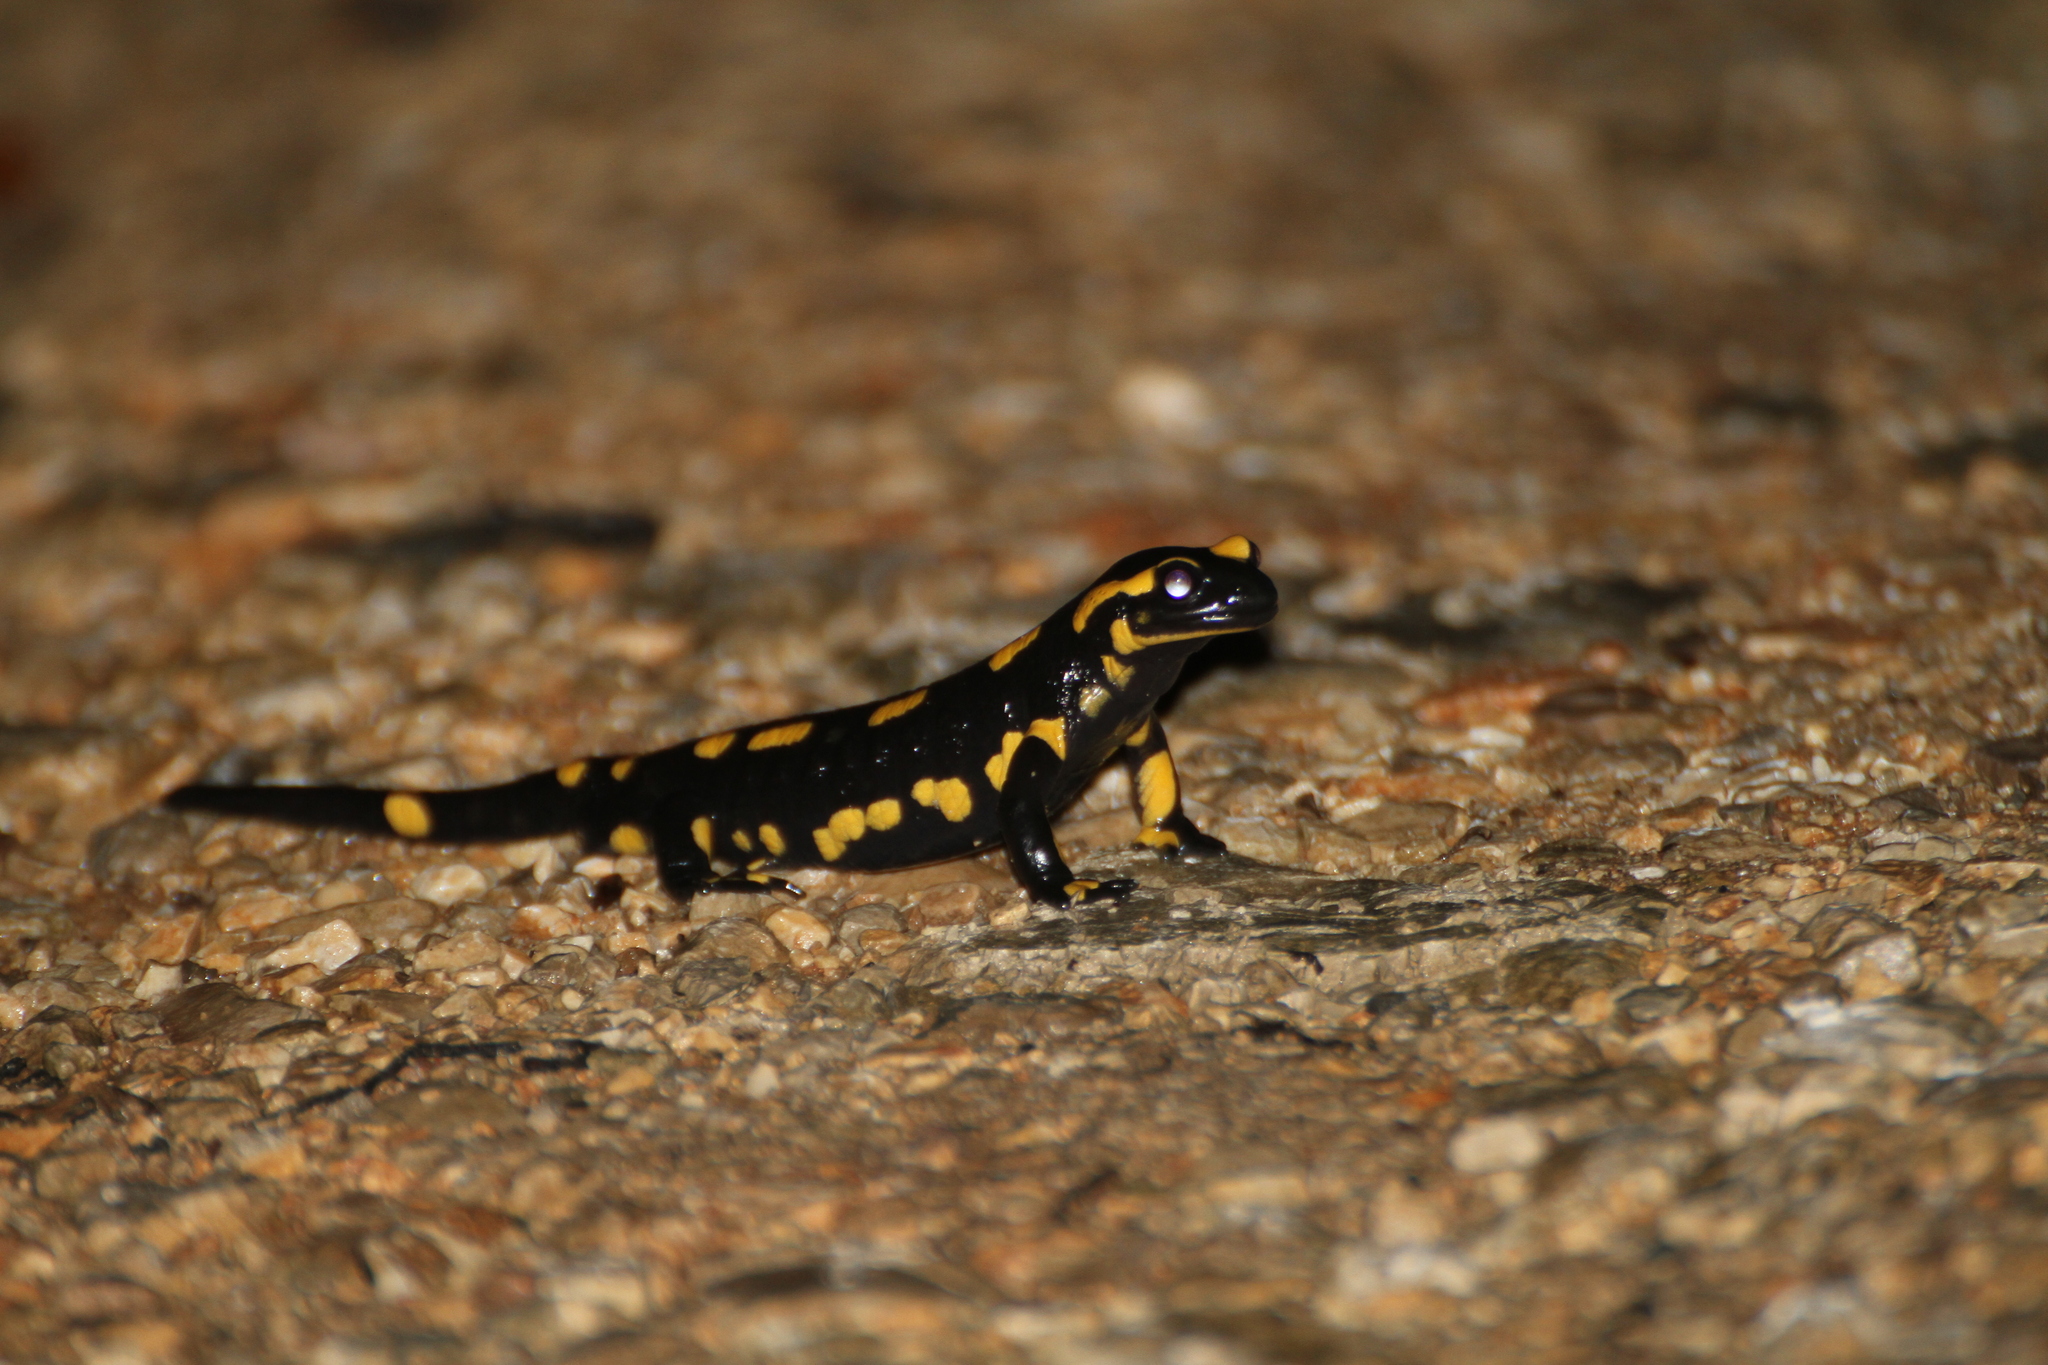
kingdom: Animalia
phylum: Chordata
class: Amphibia
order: Caudata
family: Salamandridae
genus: Salamandra
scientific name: Salamandra salamandra
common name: Fire salamander
